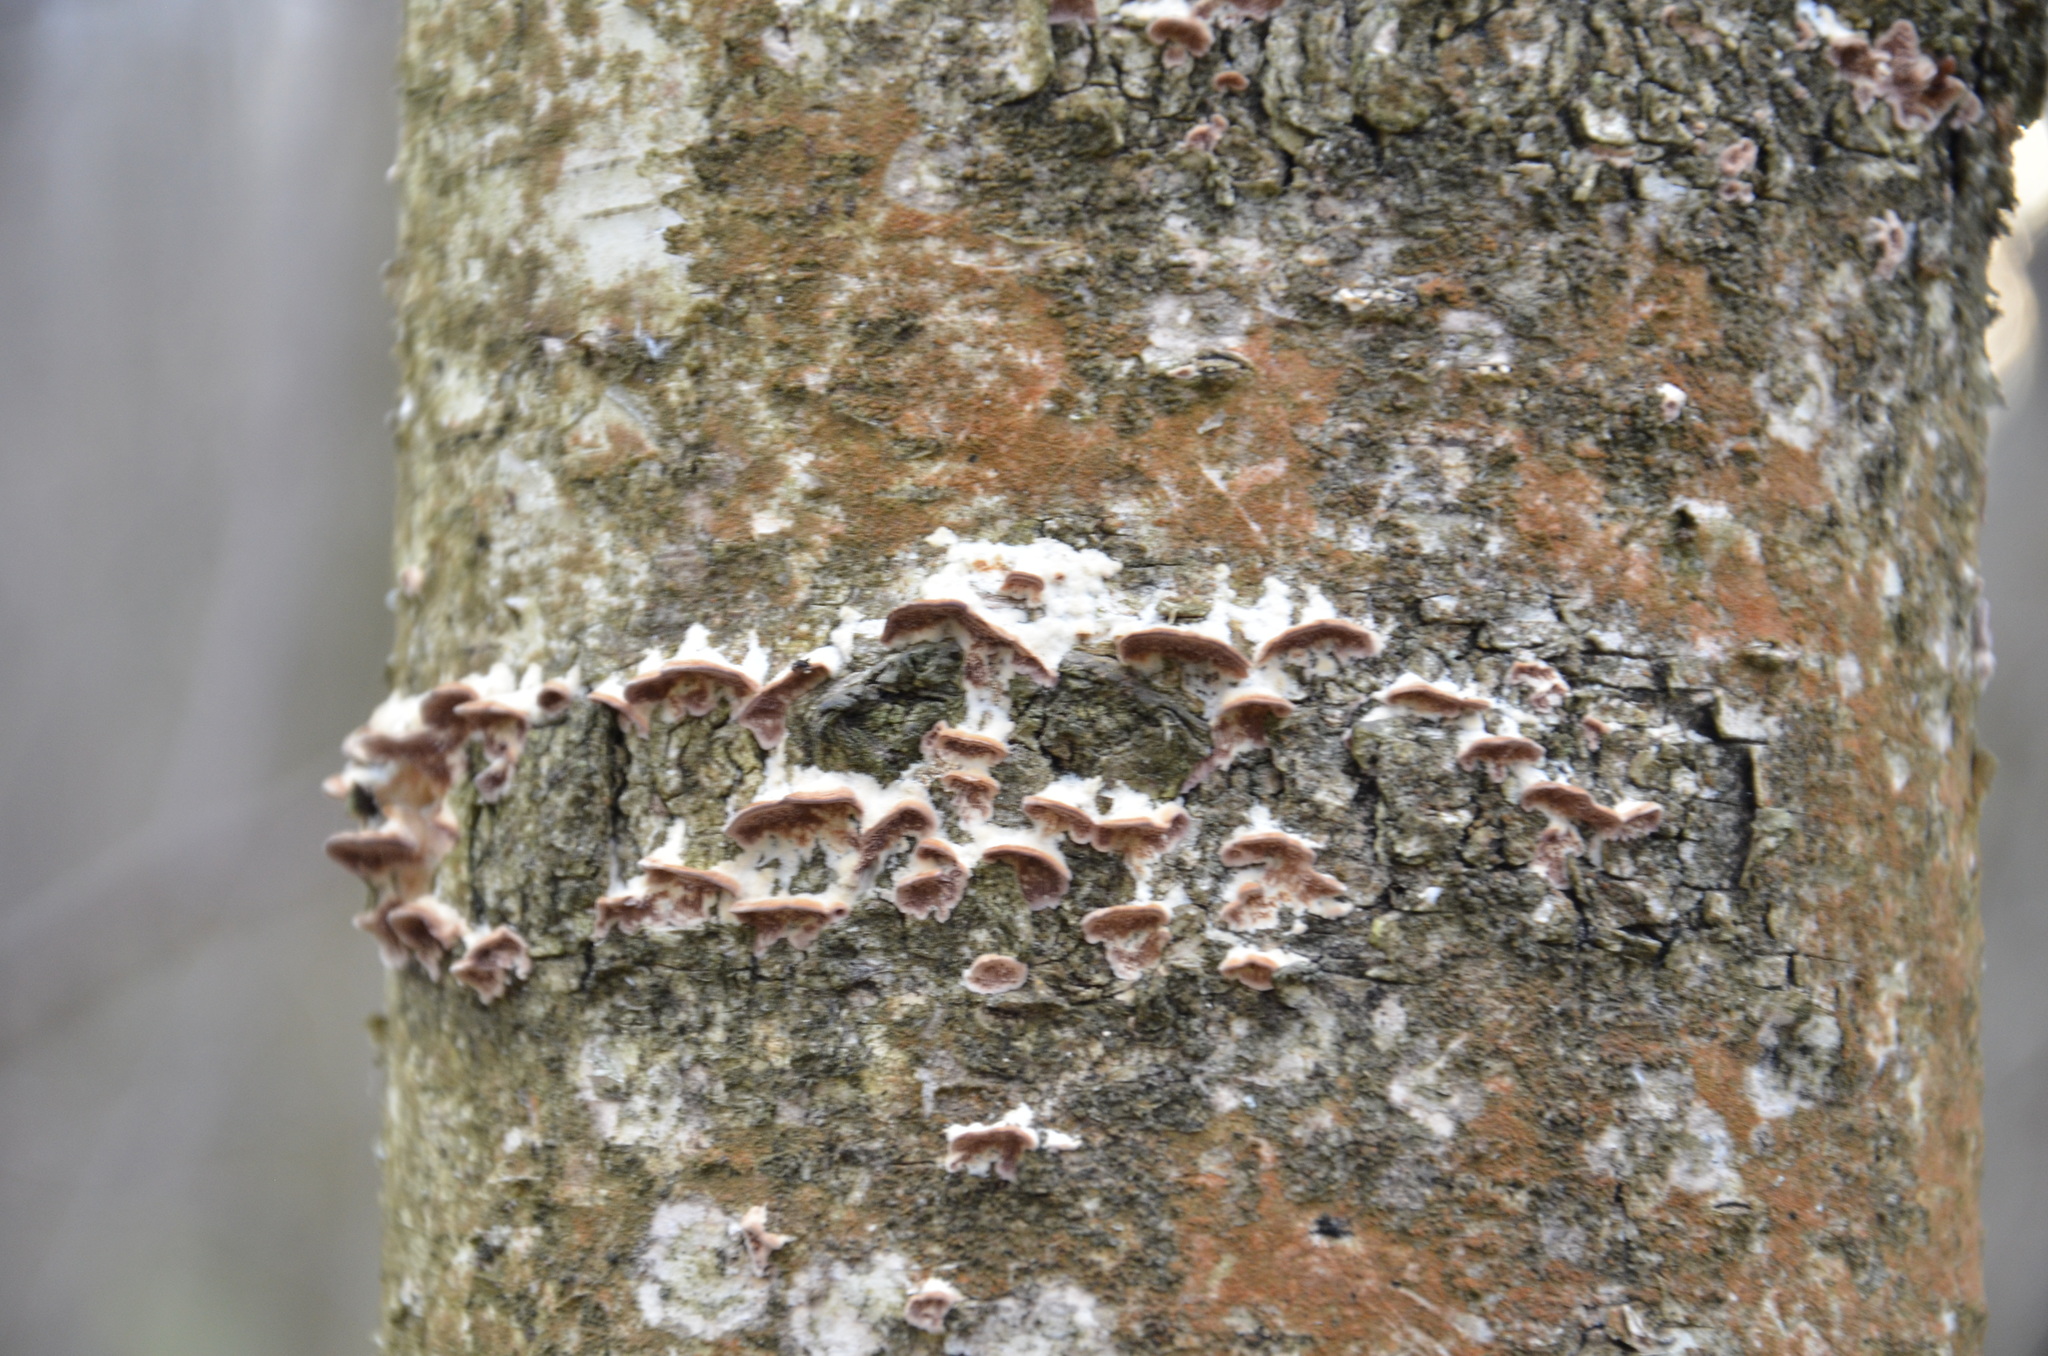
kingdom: Fungi
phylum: Basidiomycota
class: Agaricomycetes
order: Hymenochaetales
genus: Trichaptum
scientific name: Trichaptum biforme
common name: Violet-toothed polypore
